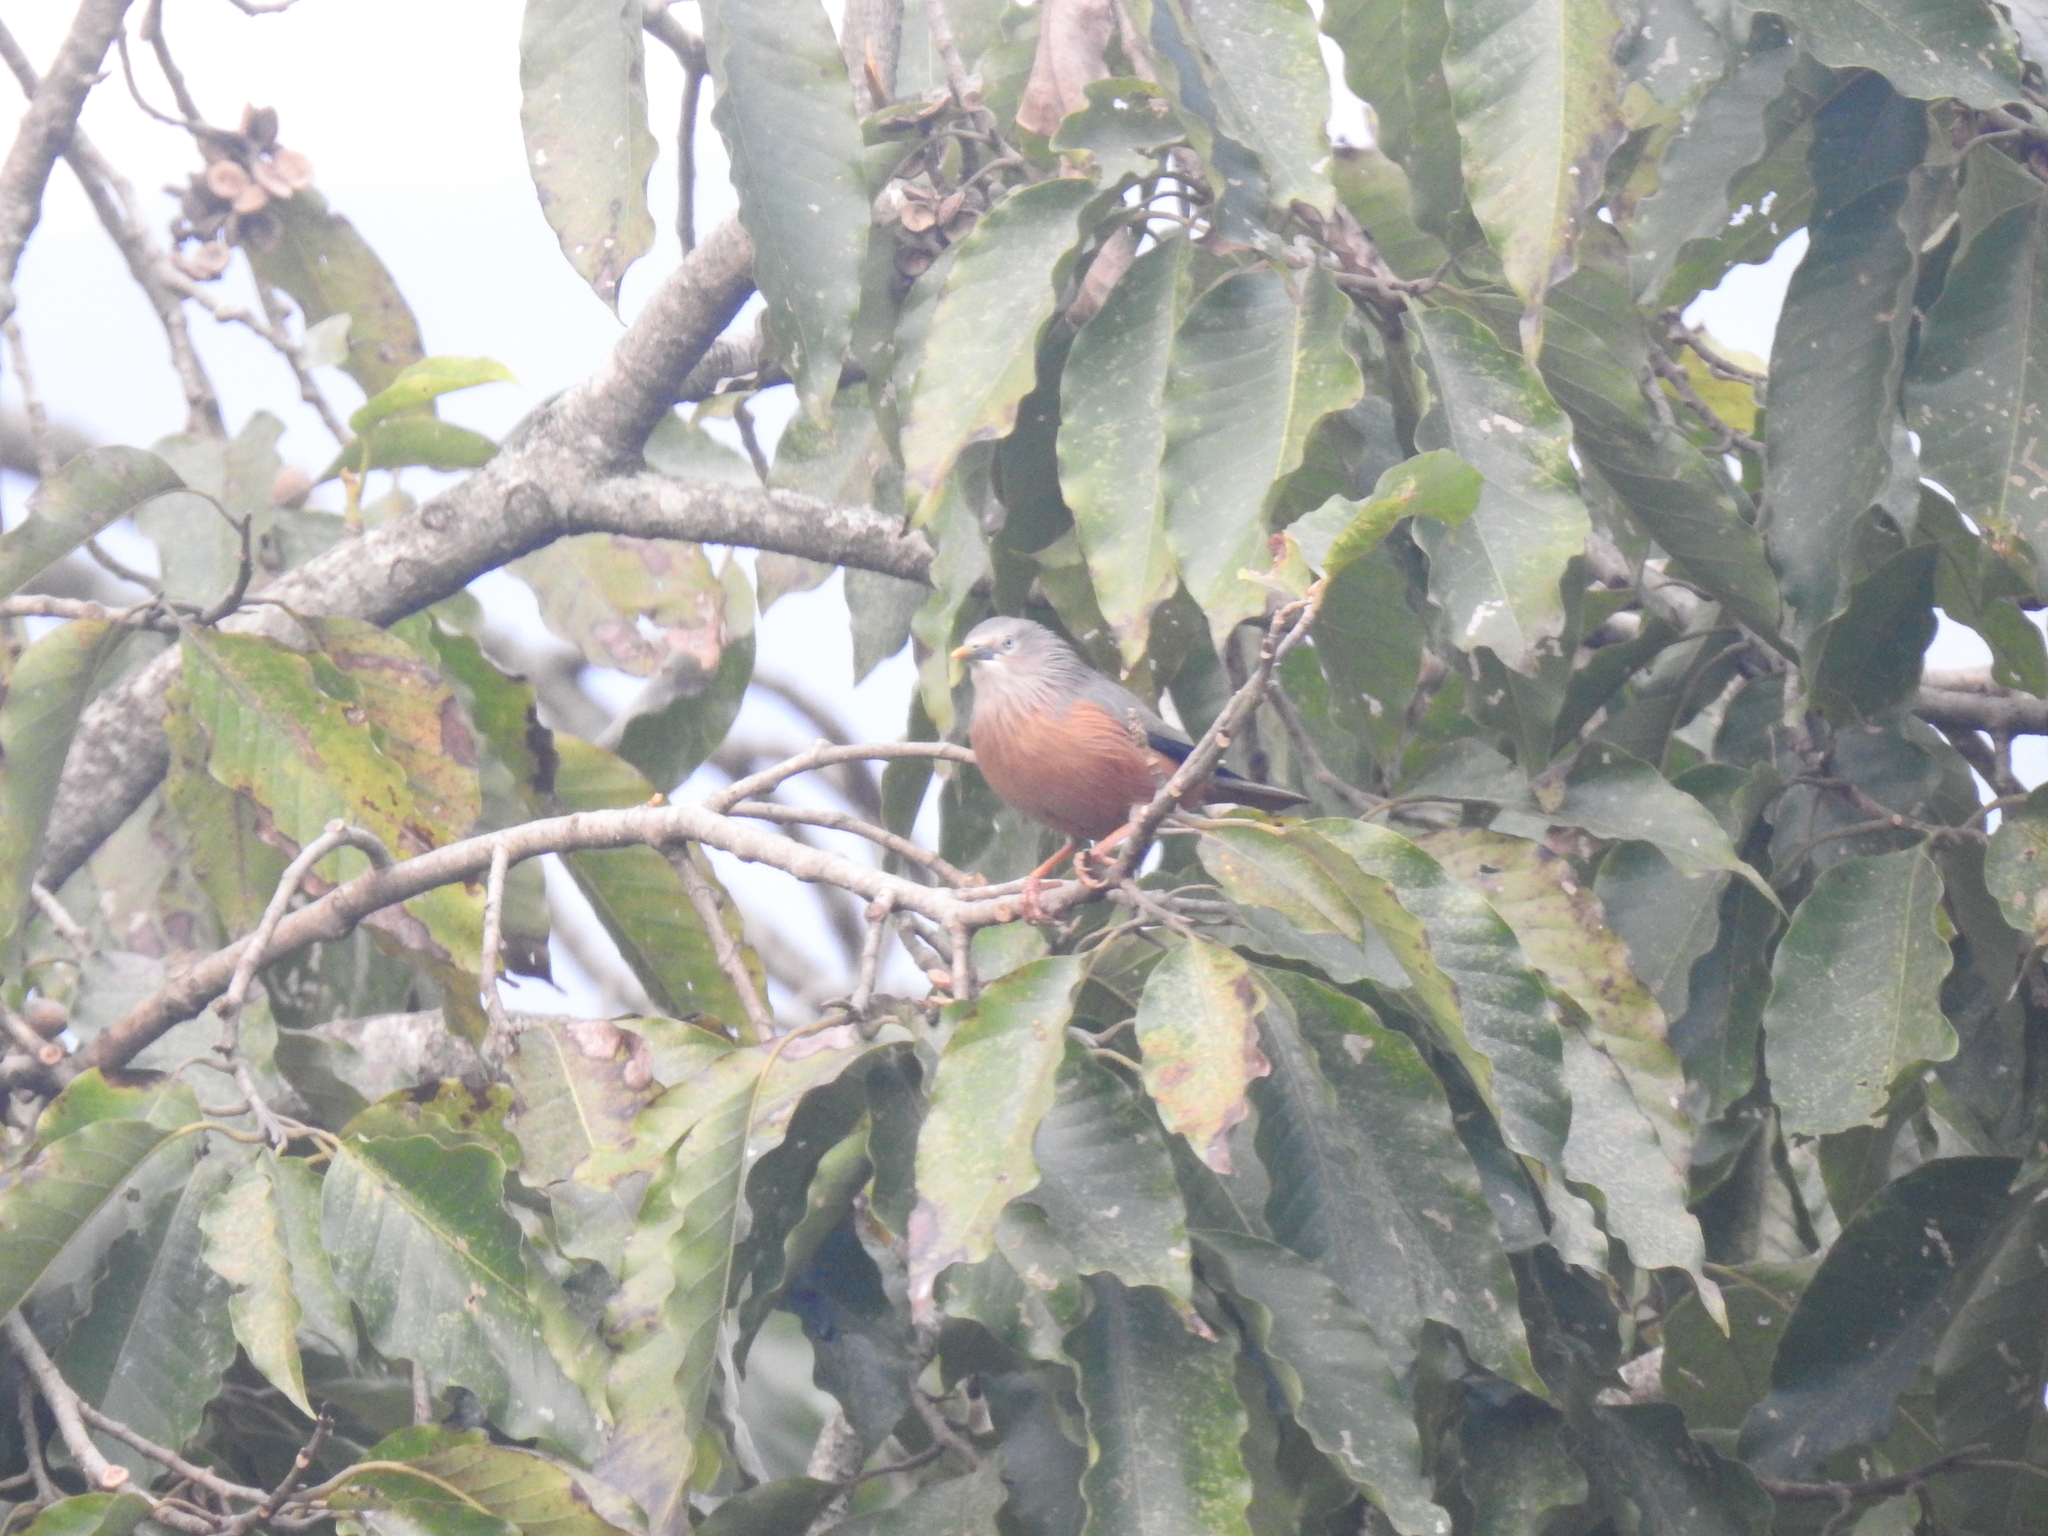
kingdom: Animalia
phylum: Chordata
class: Aves
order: Passeriformes
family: Sturnidae
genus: Sturnia
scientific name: Sturnia malabarica
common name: Chestnut-tailed starling
